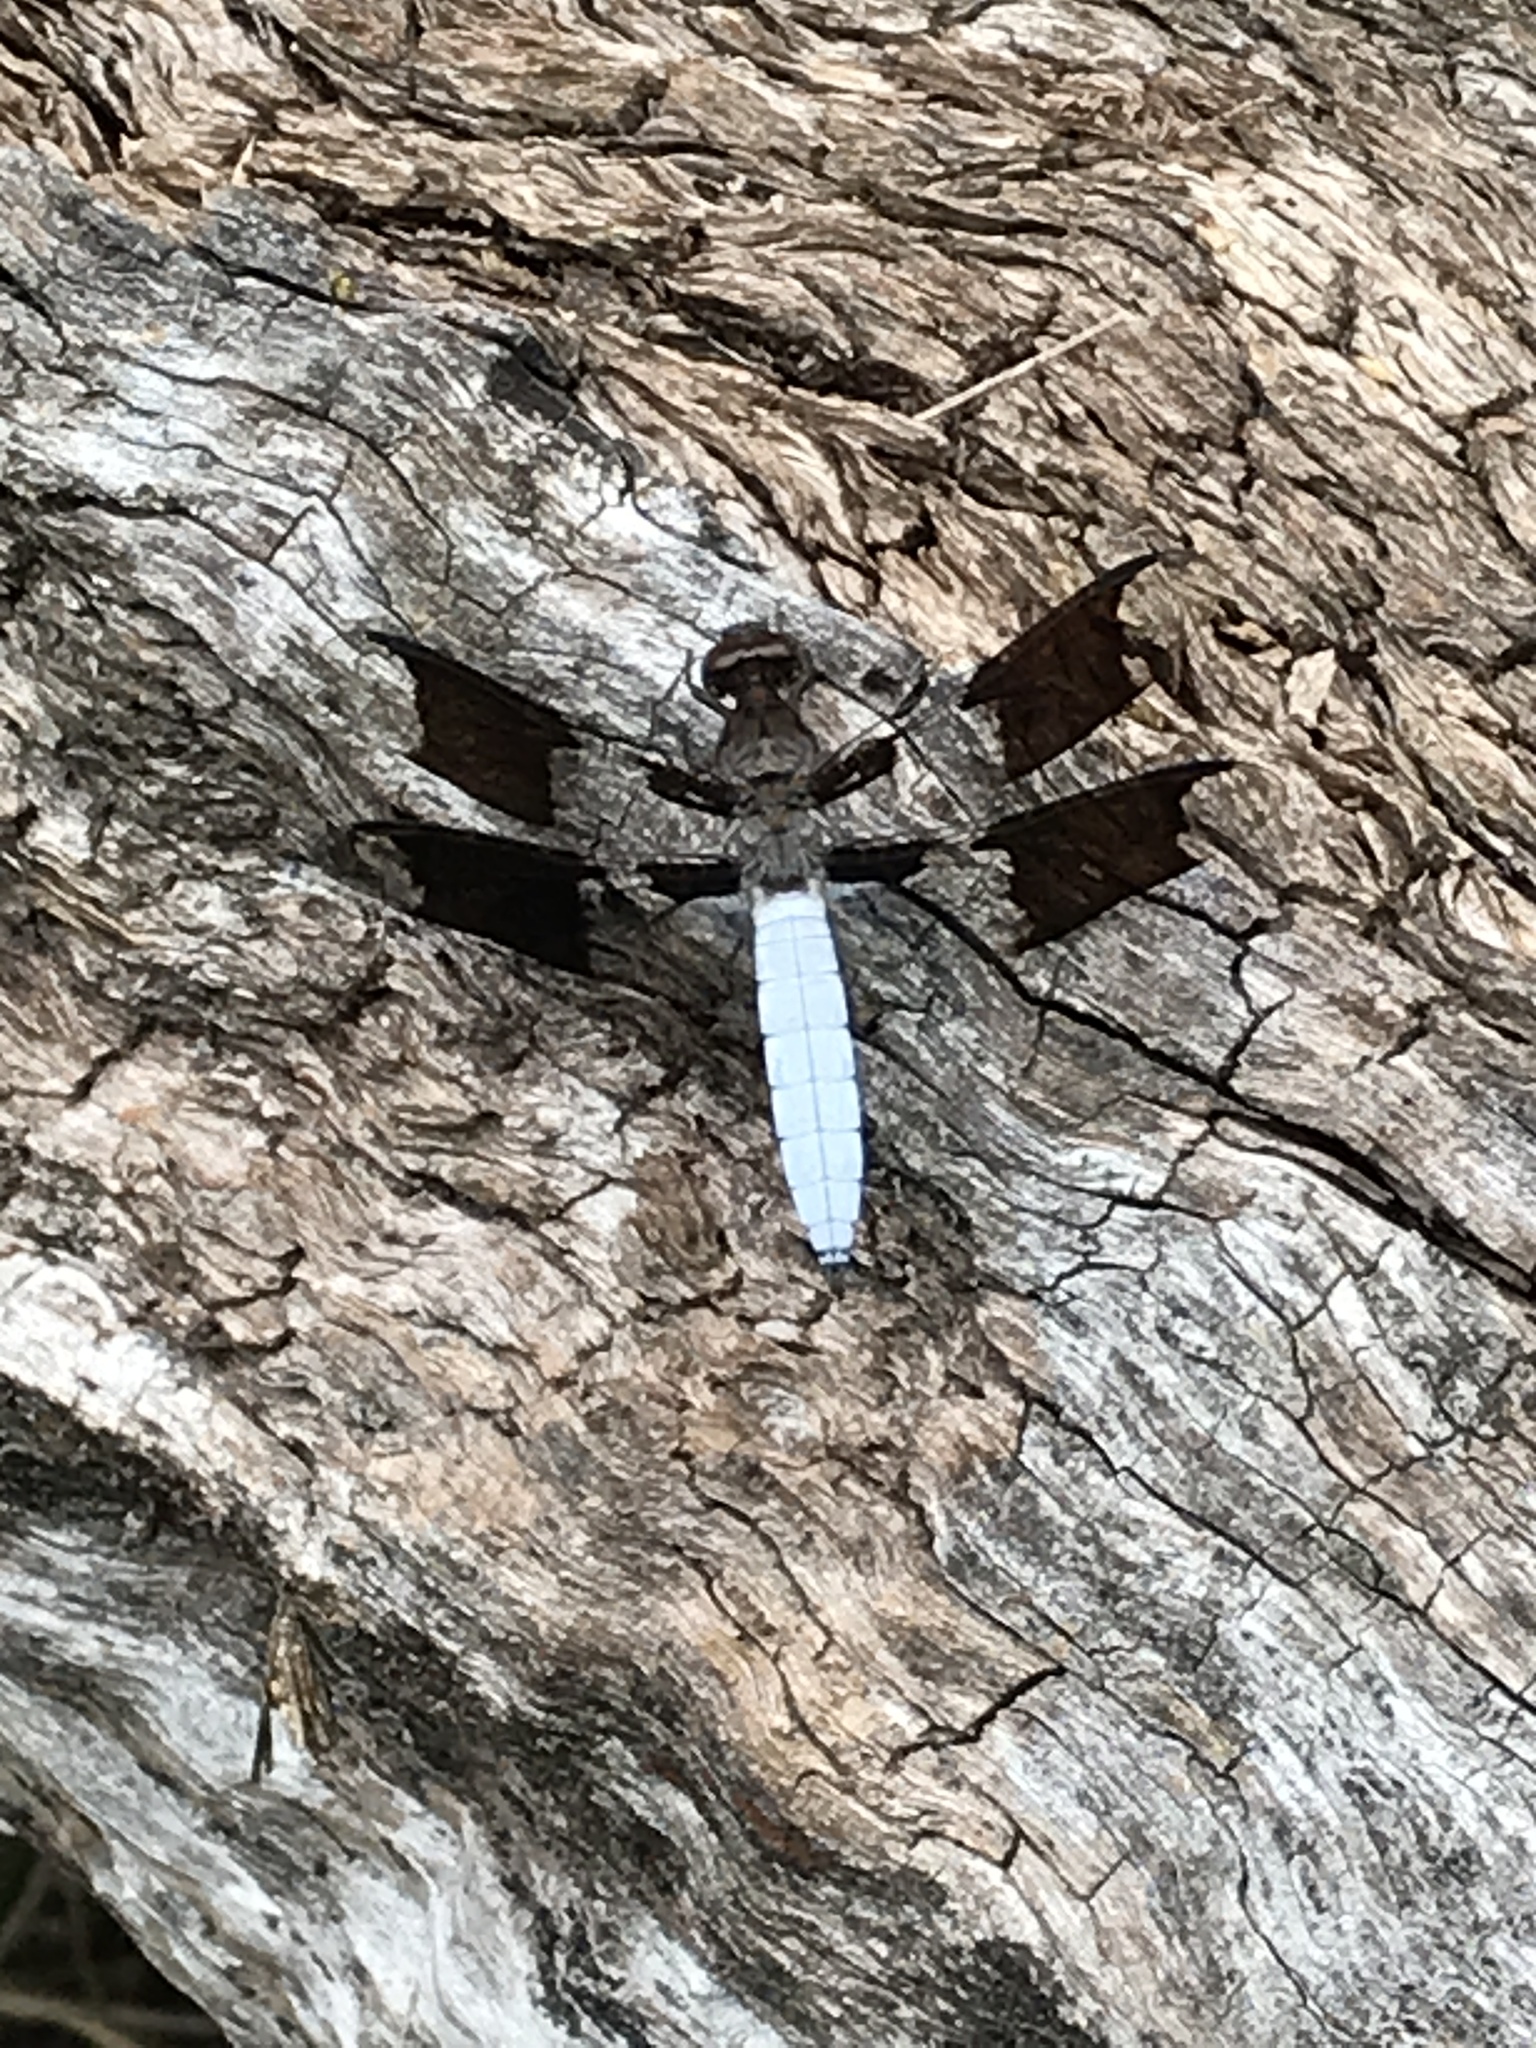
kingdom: Animalia
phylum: Arthropoda
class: Insecta
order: Odonata
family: Libellulidae
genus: Plathemis
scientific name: Plathemis lydia
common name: Common whitetail
